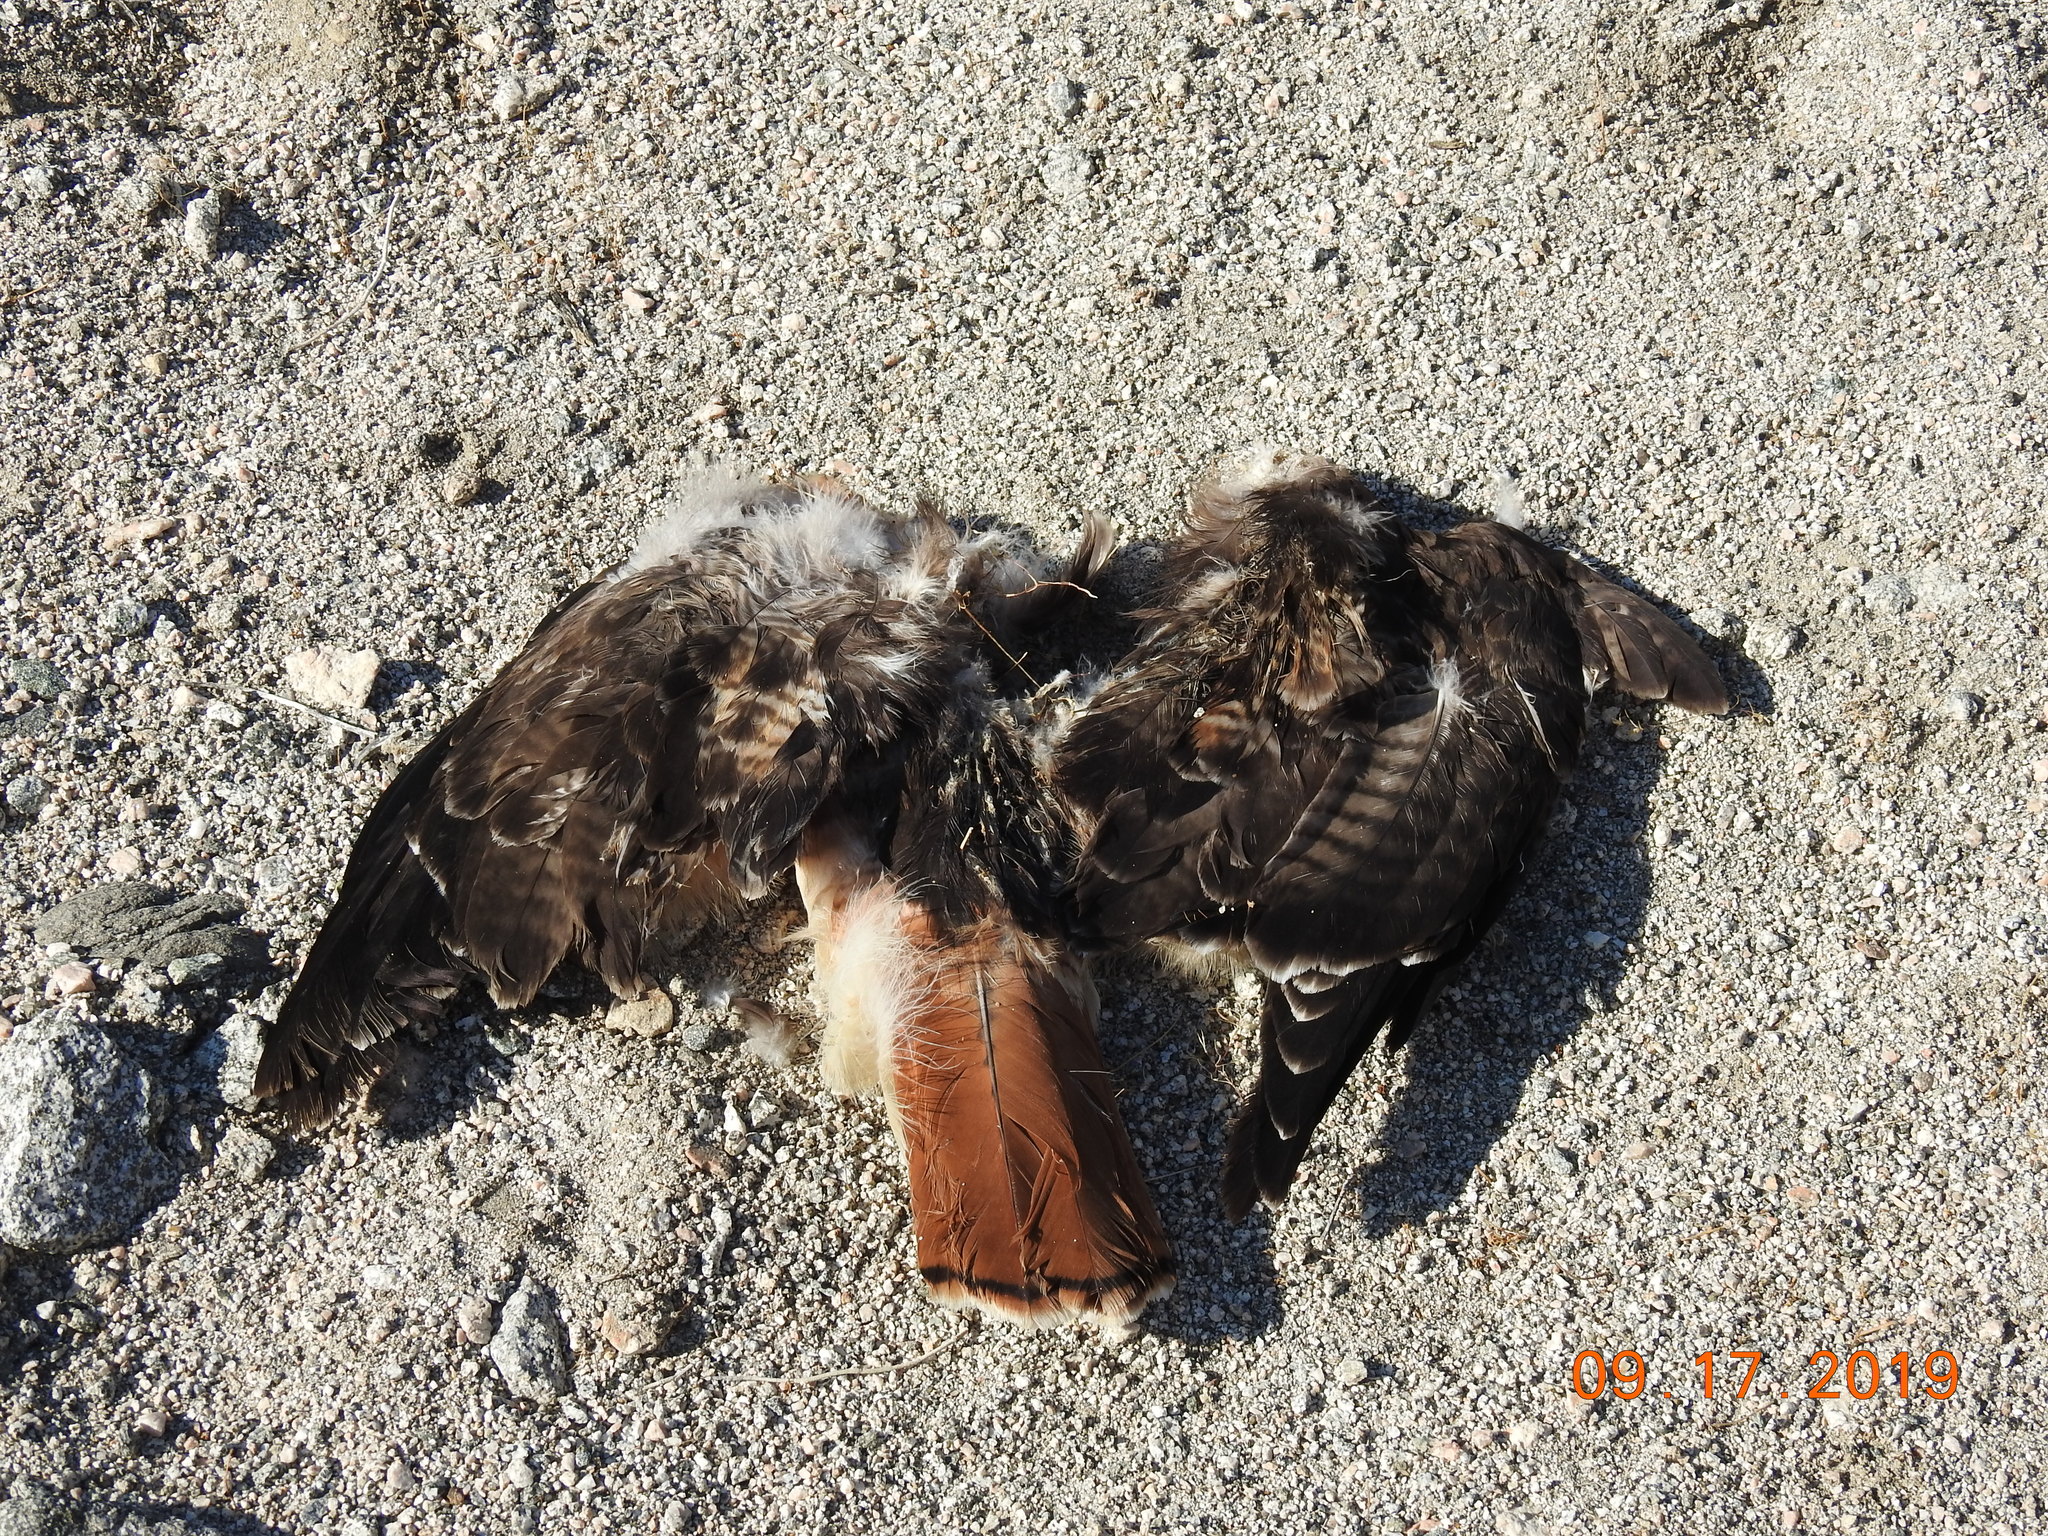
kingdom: Animalia
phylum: Chordata
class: Aves
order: Accipitriformes
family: Accipitridae
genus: Buteo
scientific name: Buteo jamaicensis
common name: Red-tailed hawk
